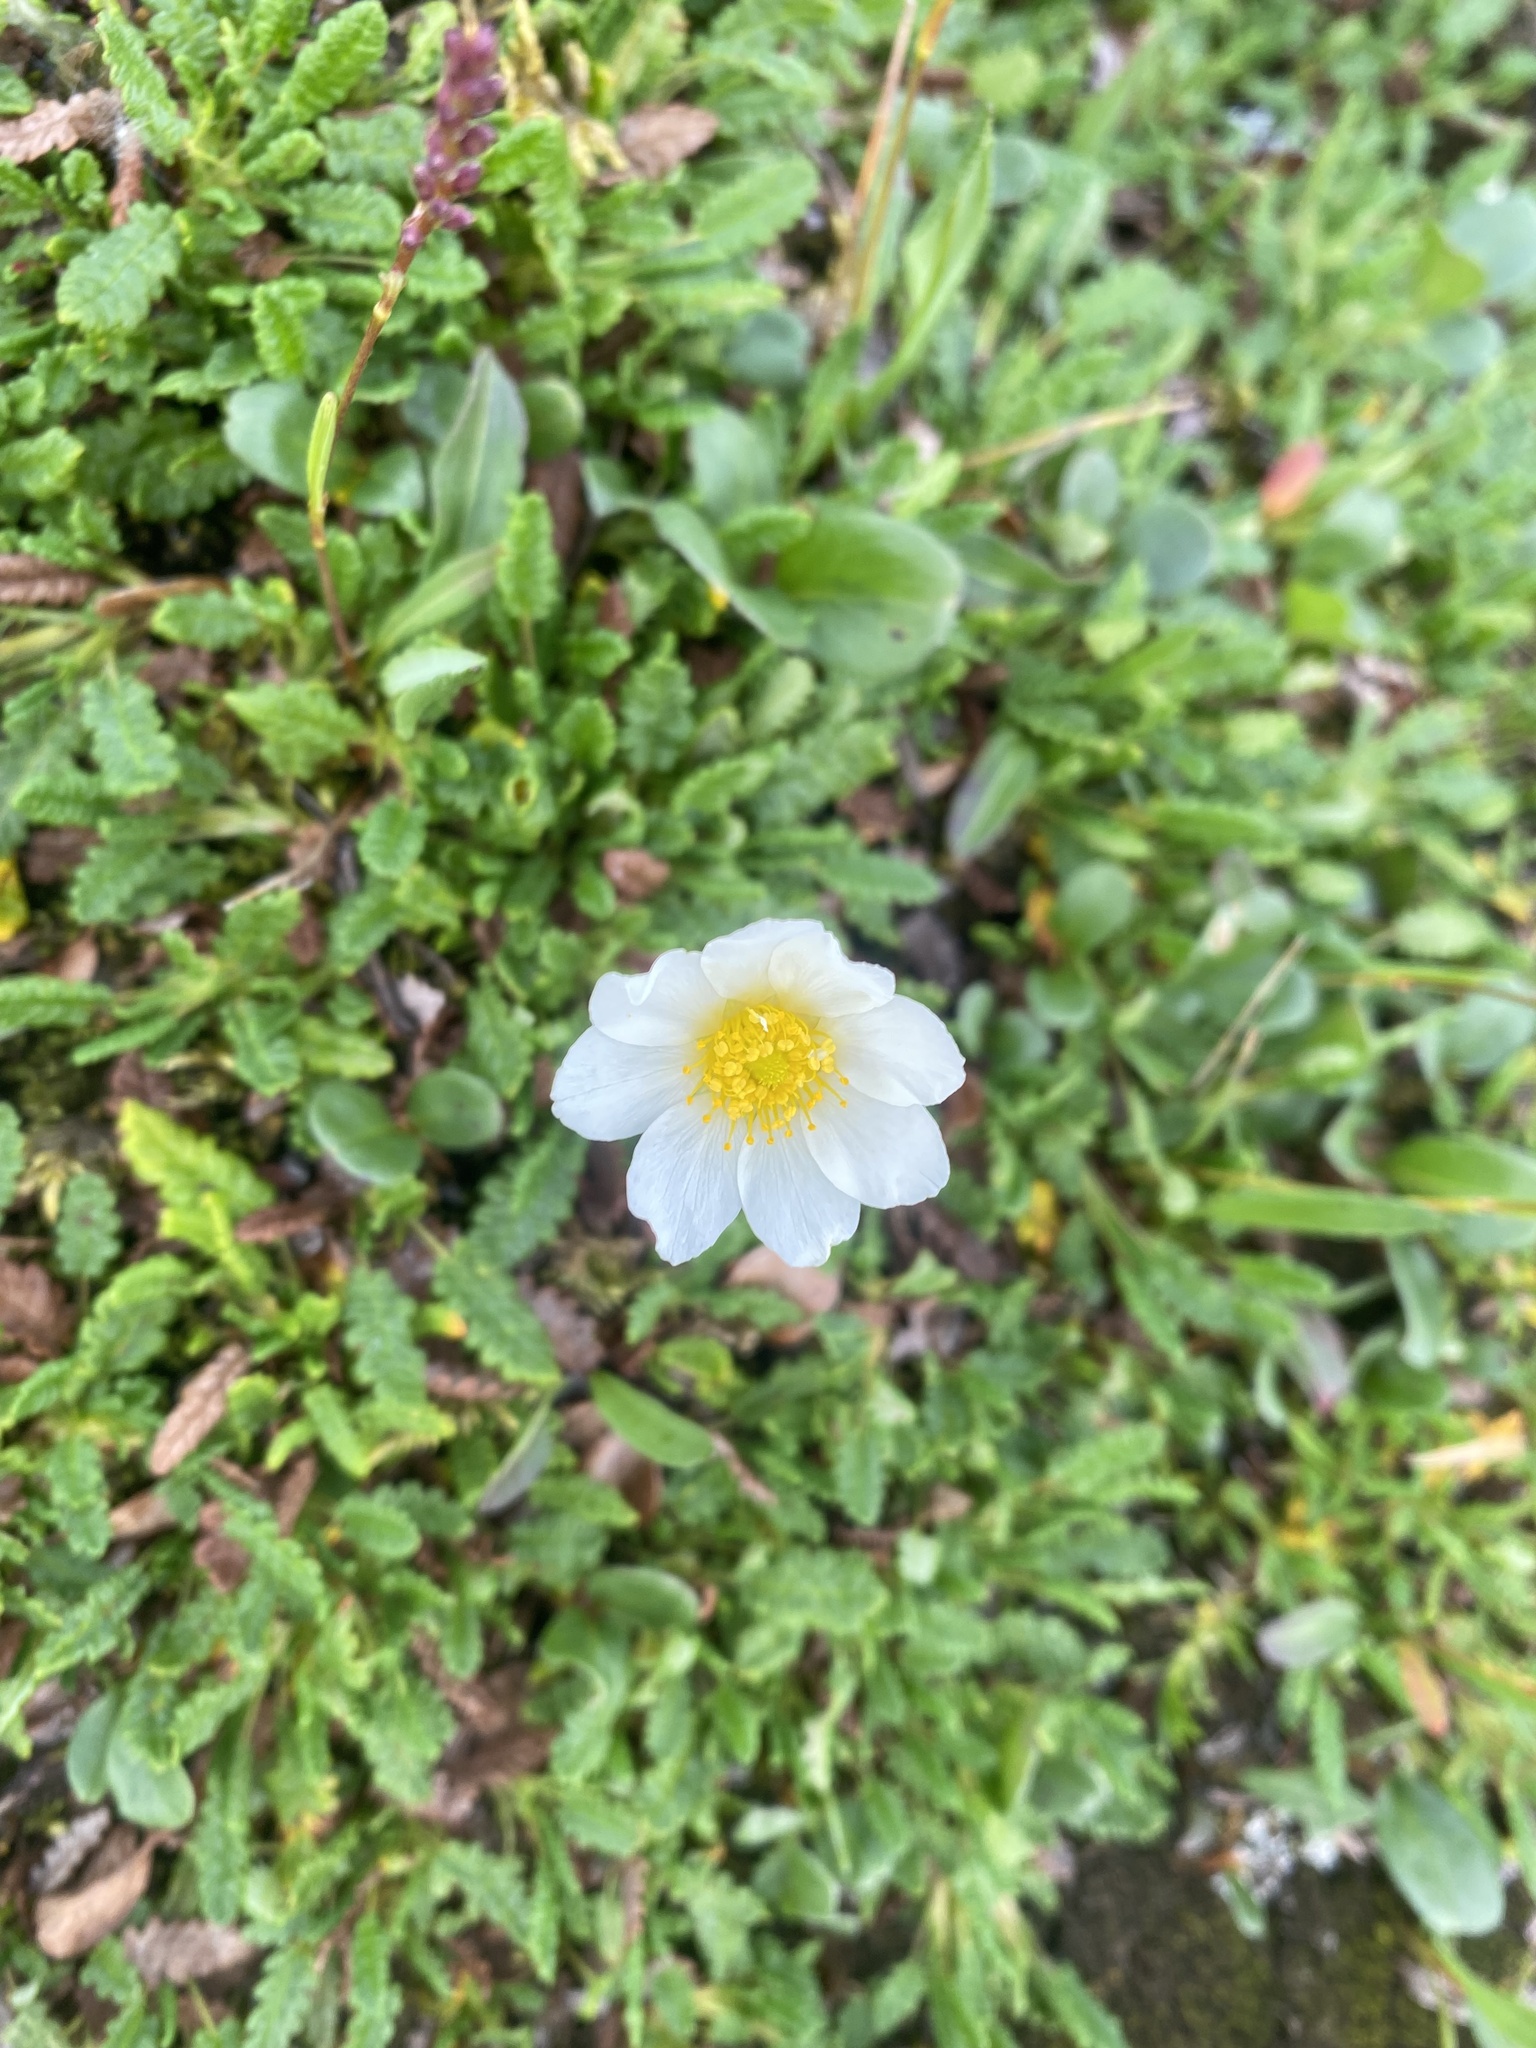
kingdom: Plantae
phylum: Tracheophyta
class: Magnoliopsida
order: Rosales
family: Rosaceae
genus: Dryas
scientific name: Dryas octopetala
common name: Eight-petal mountain-avens
